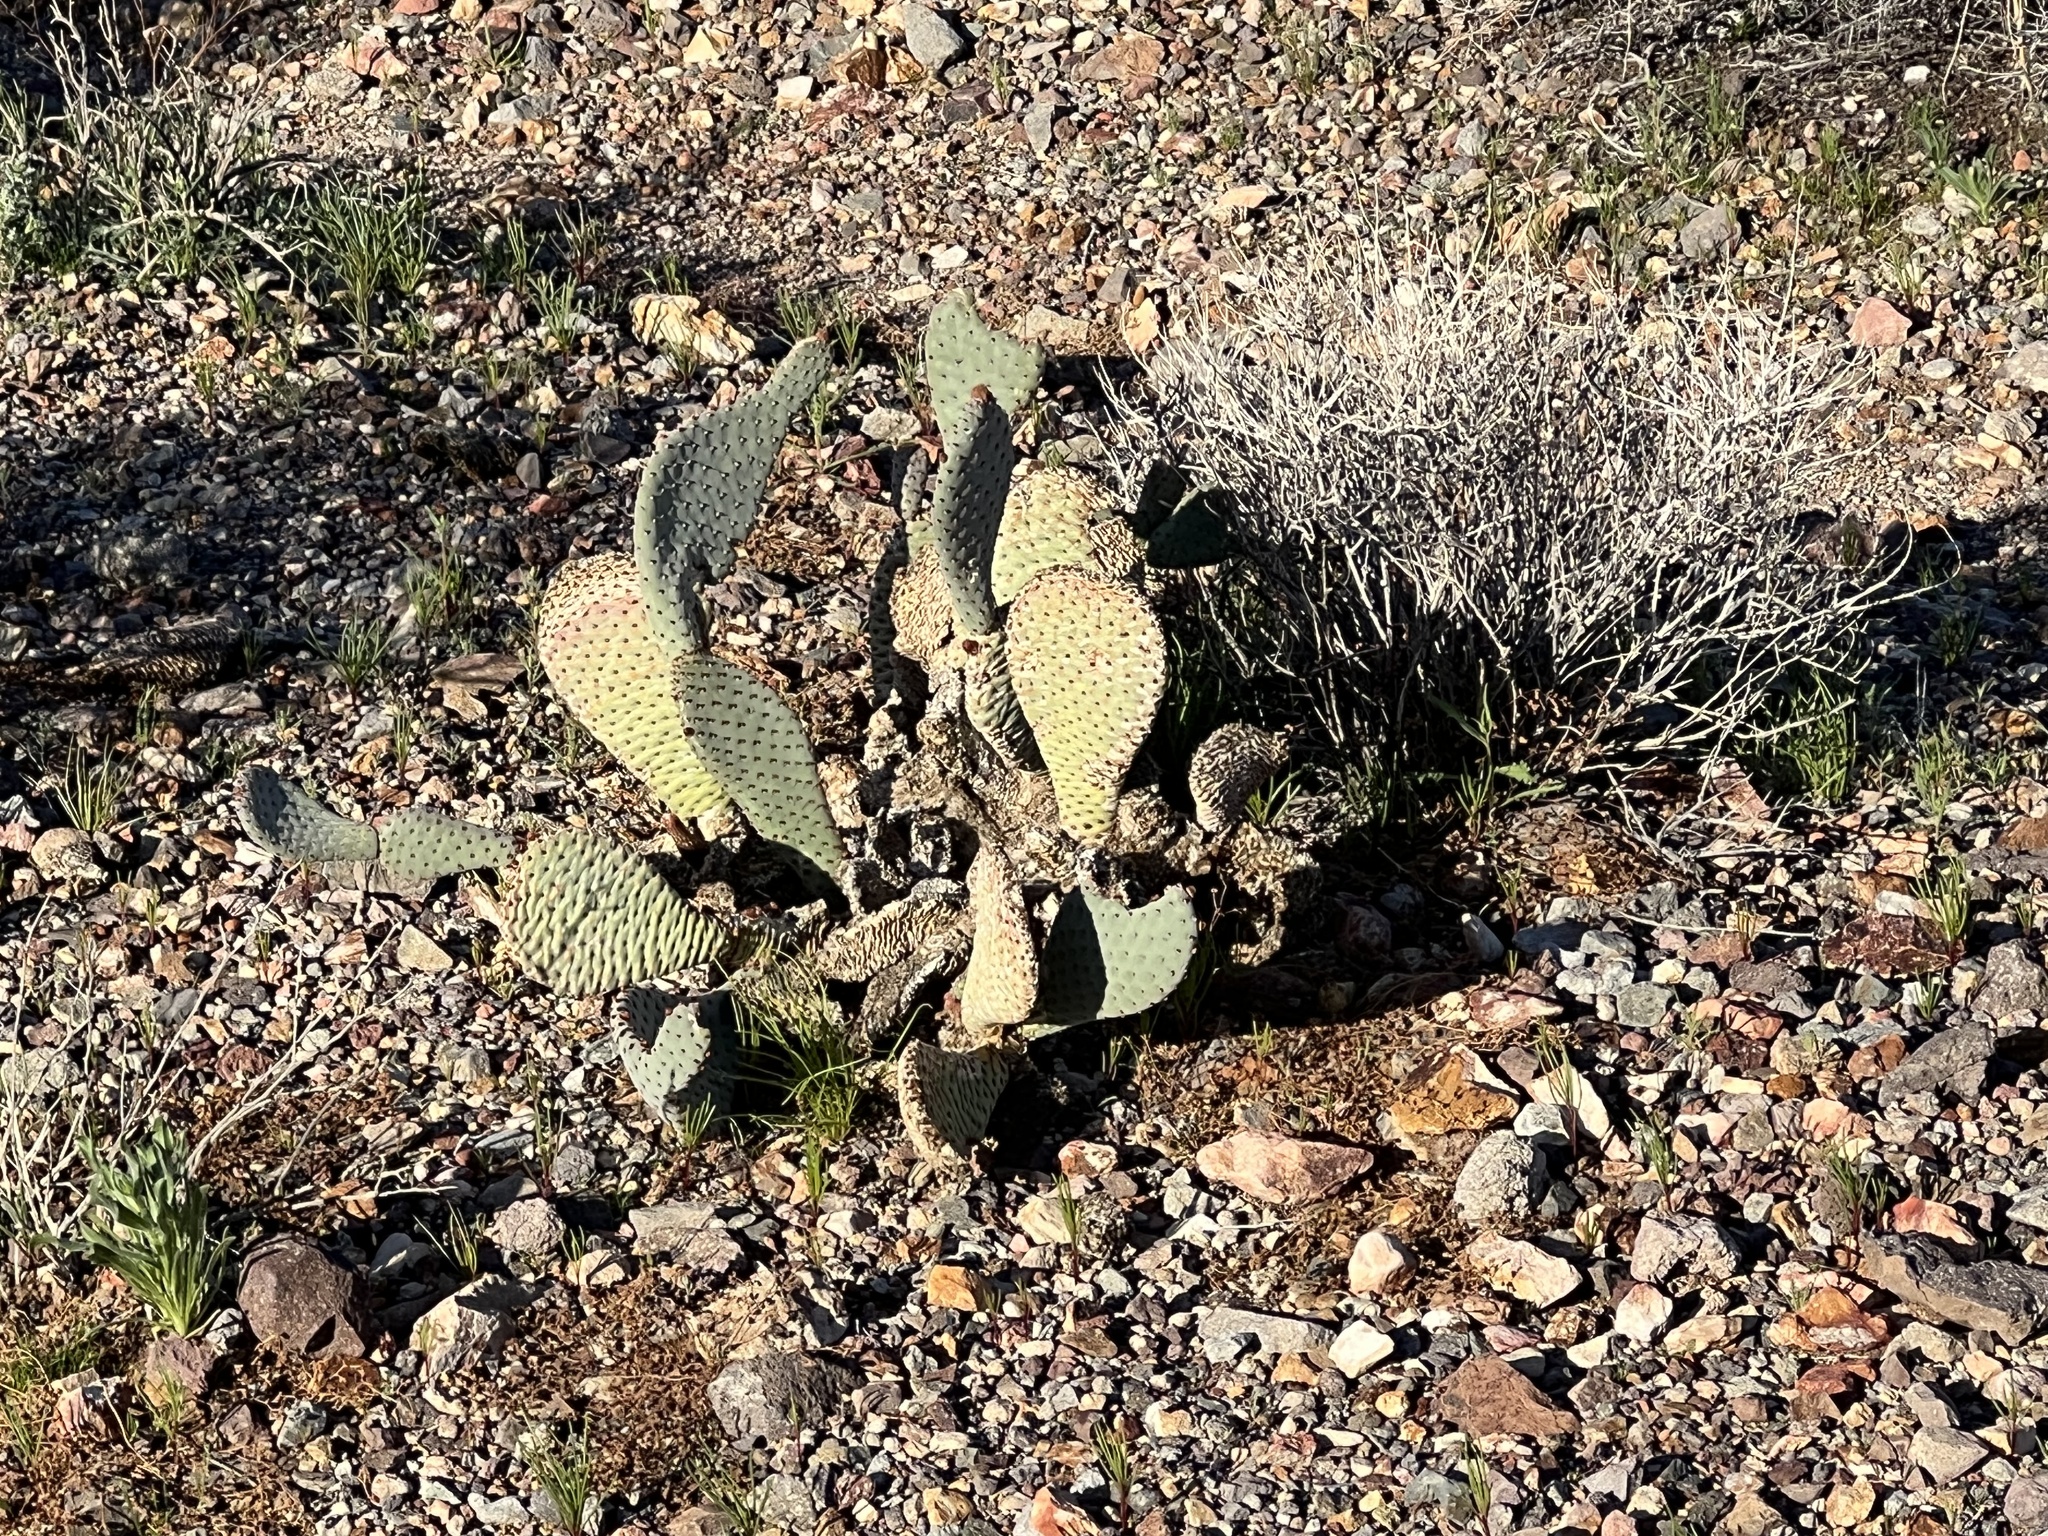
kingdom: Plantae
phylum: Tracheophyta
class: Magnoliopsida
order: Caryophyllales
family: Cactaceae
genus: Opuntia
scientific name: Opuntia basilaris
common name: Beavertail prickly-pear
